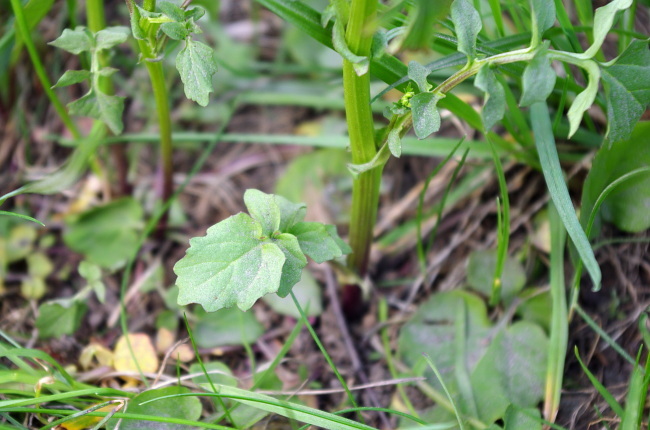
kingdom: Plantae
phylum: Tracheophyta
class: Magnoliopsida
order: Brassicales
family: Brassicaceae
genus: Barbarea
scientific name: Barbarea vulgaris
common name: Cressy-greens
